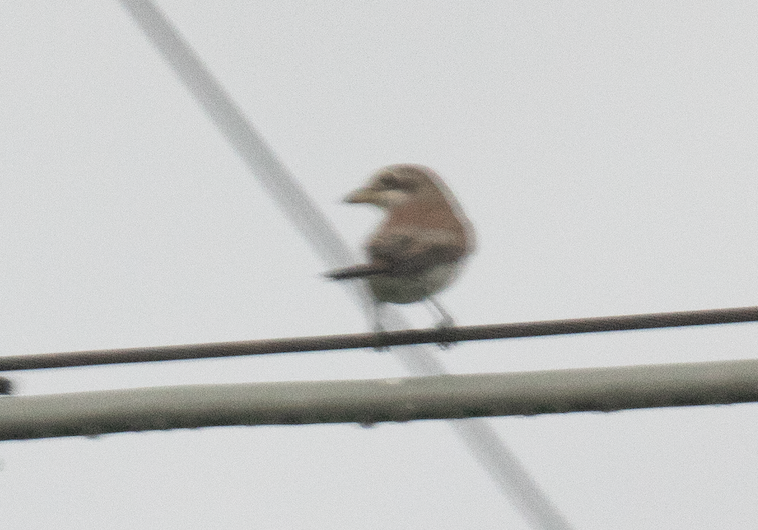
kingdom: Animalia
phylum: Chordata
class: Aves
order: Passeriformes
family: Laniidae
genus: Lanius
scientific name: Lanius collurio
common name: Red-backed shrike
